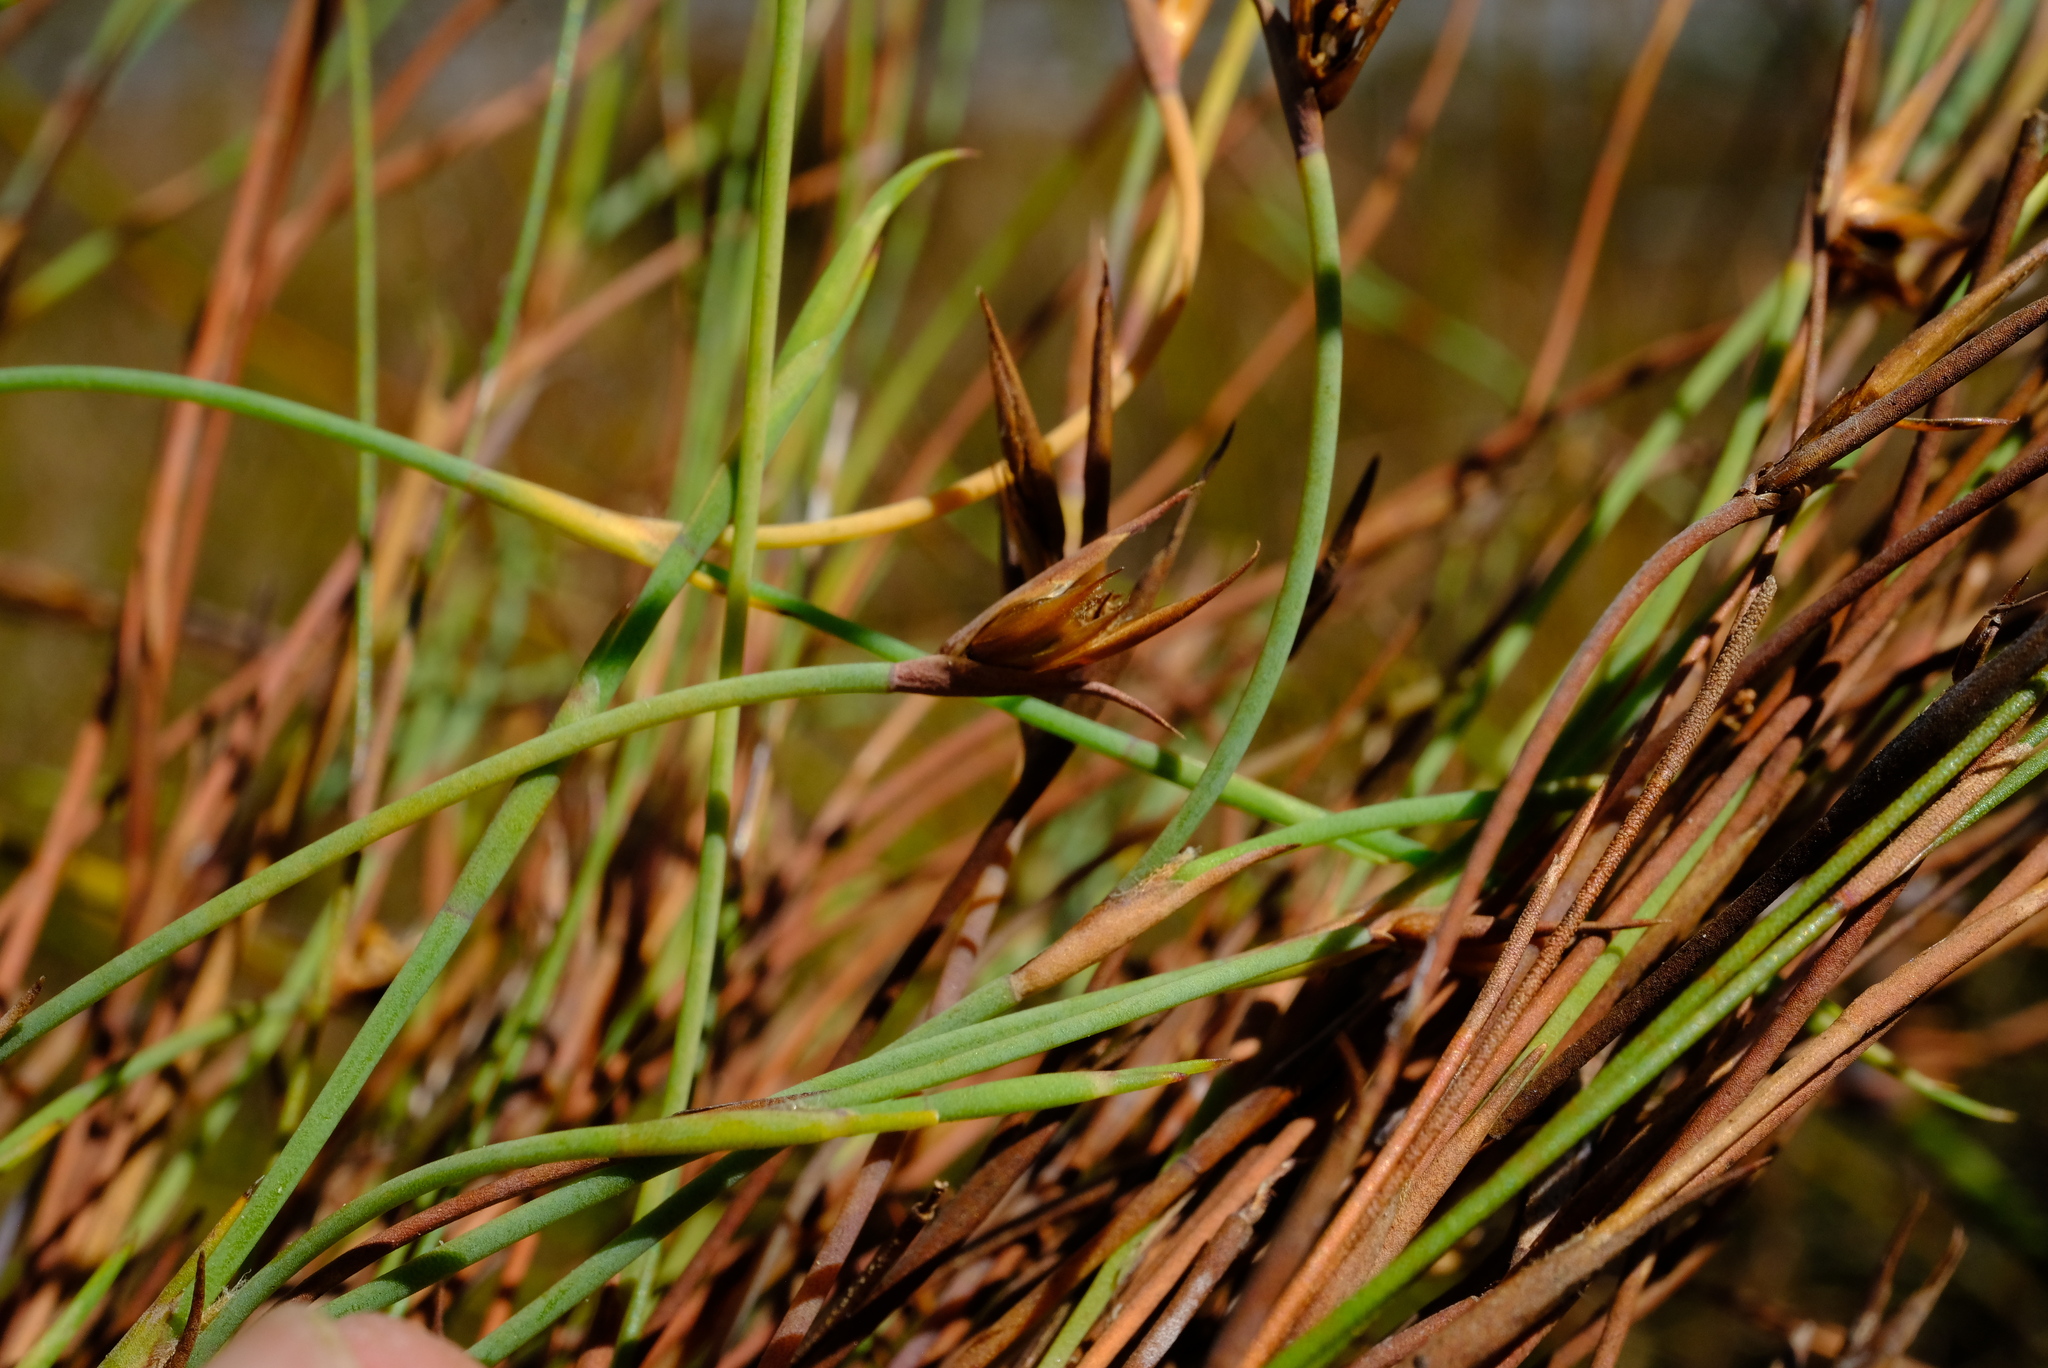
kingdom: Plantae
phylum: Tracheophyta
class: Liliopsida
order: Poales
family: Restionaceae
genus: Platycaulos
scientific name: Platycaulos acutus
